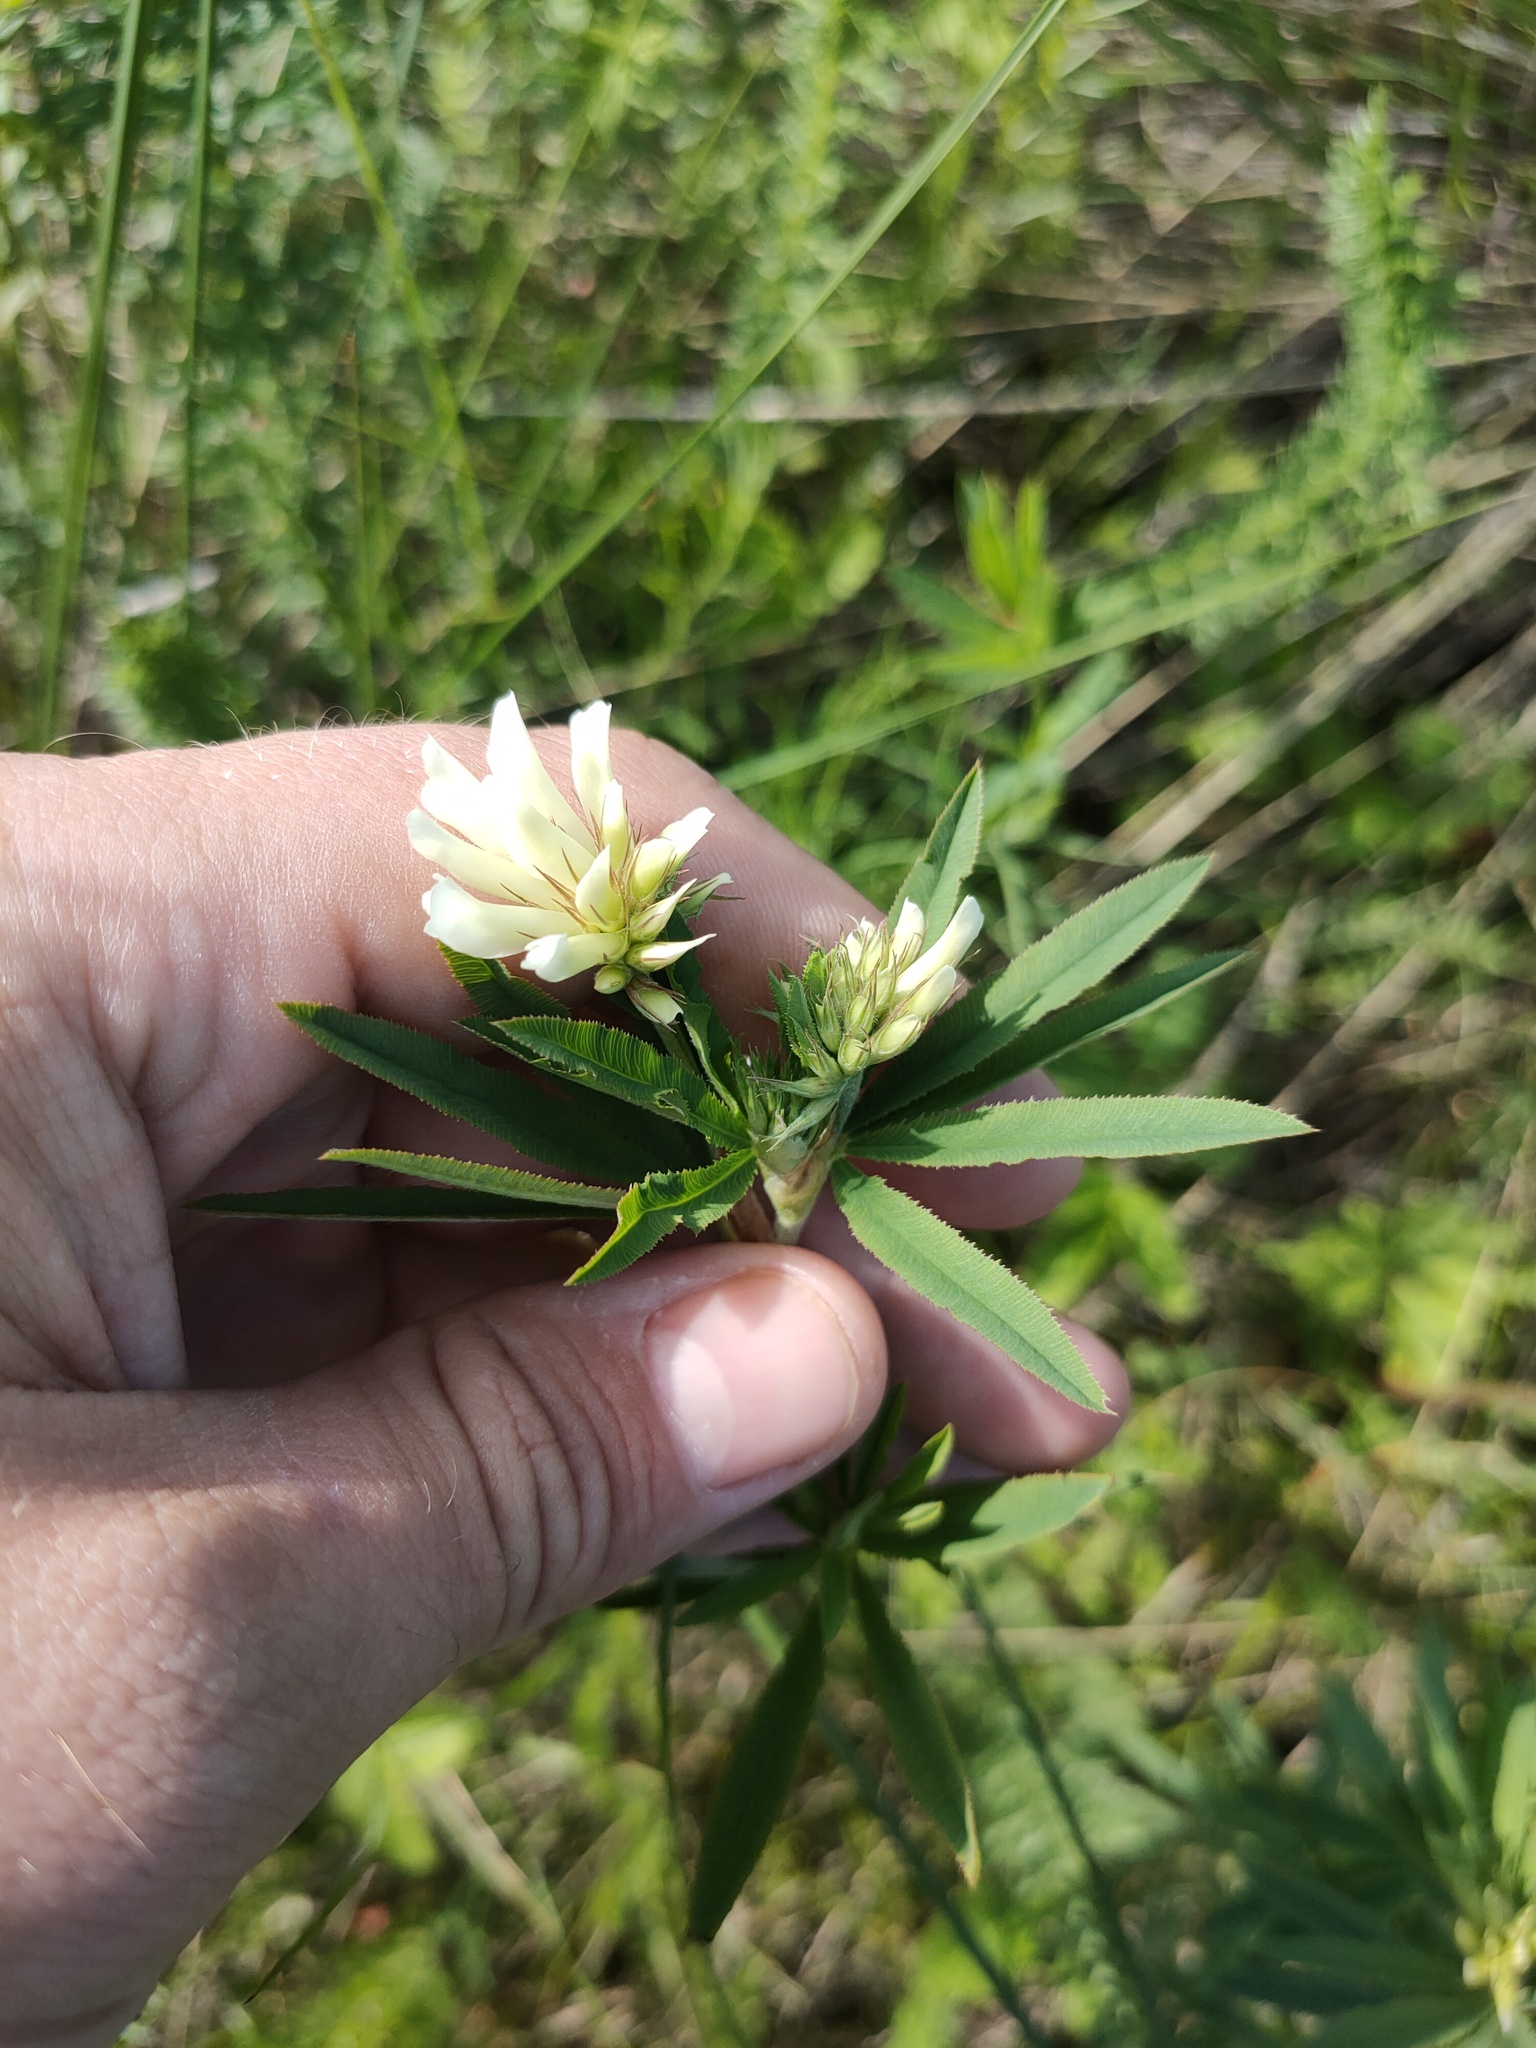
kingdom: Plantae
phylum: Tracheophyta
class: Magnoliopsida
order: Fabales
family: Fabaceae
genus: Trifolium
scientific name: Trifolium lupinaster
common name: Lupine clover
